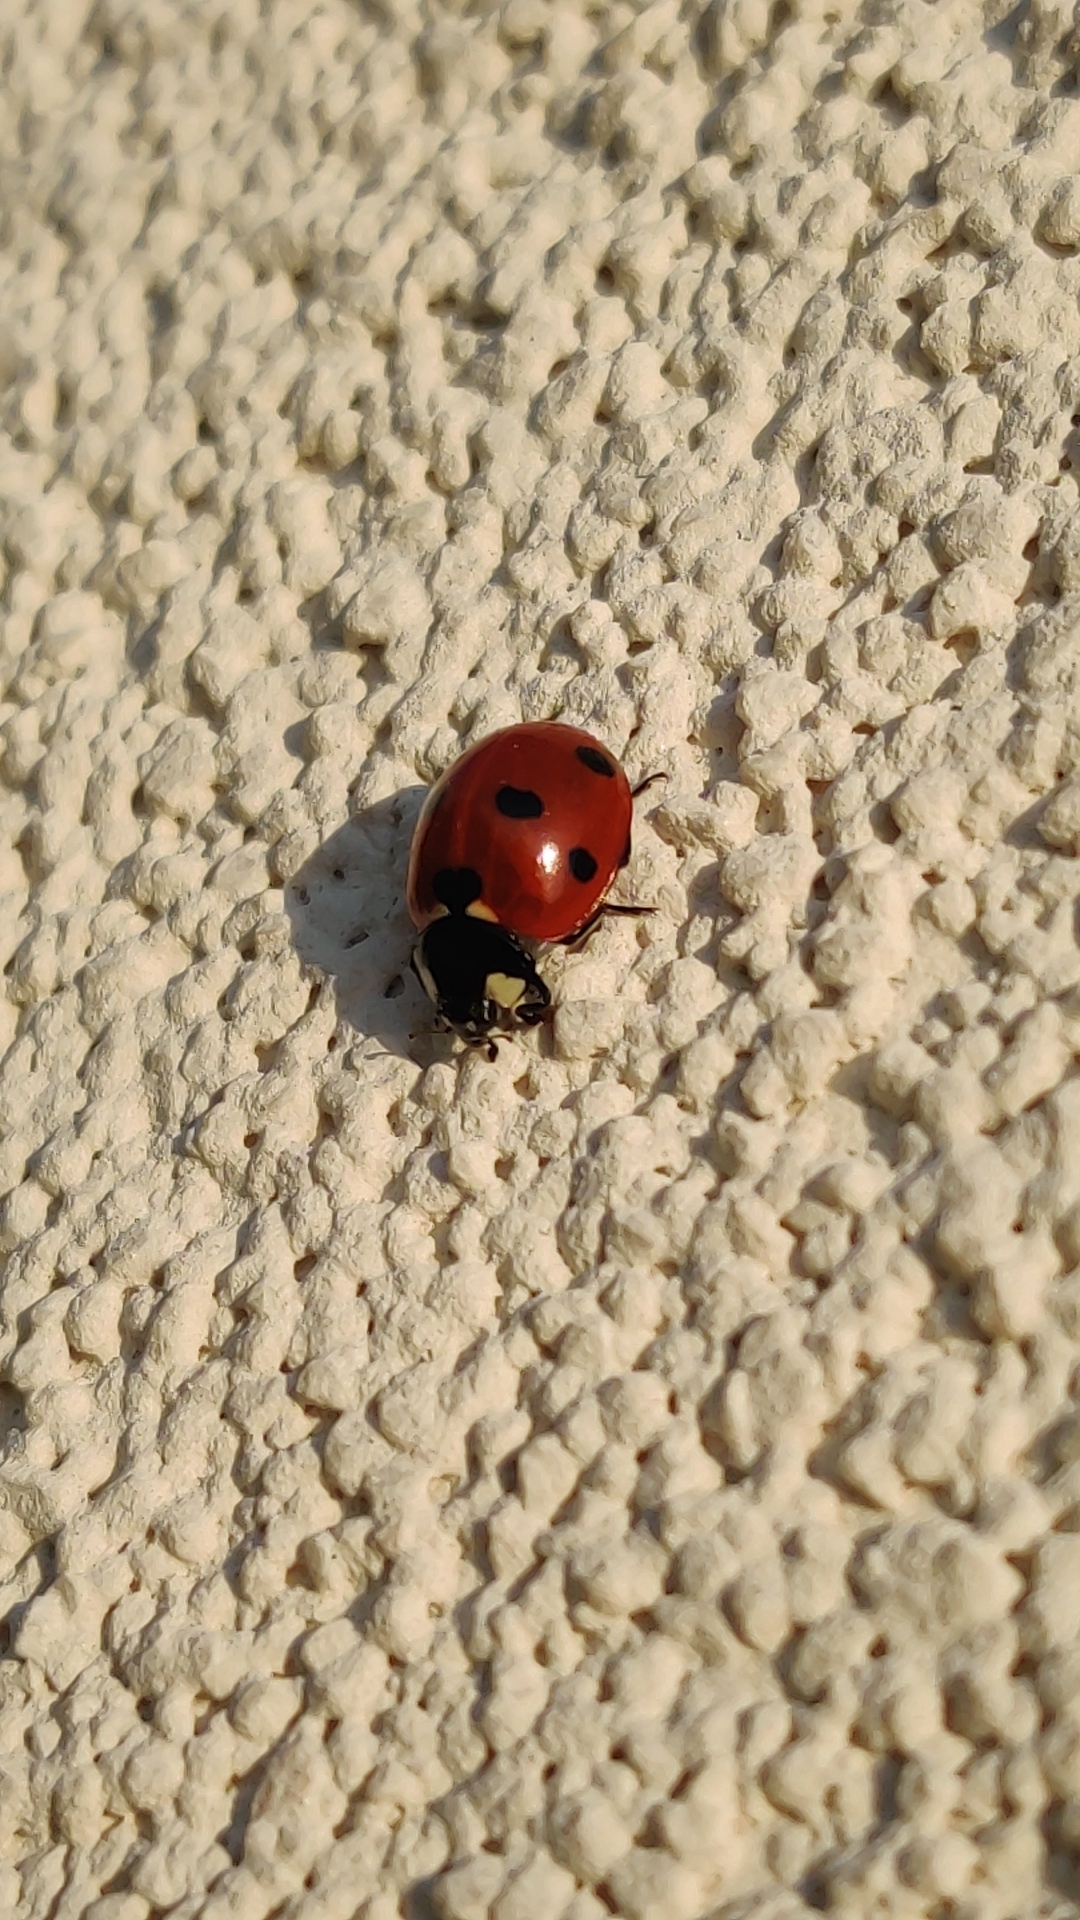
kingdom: Animalia
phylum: Arthropoda
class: Insecta
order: Coleoptera
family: Coccinellidae
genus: Coccinella
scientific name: Coccinella septempunctata
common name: Sevenspotted lady beetle
